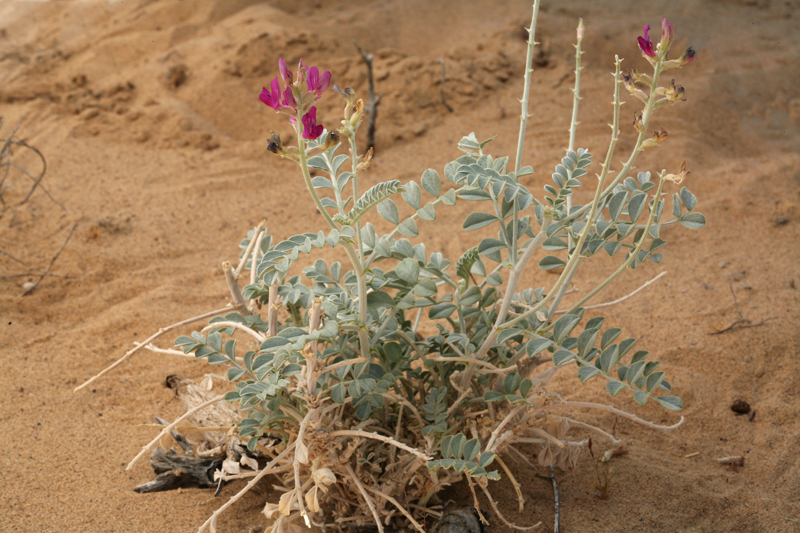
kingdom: Plantae
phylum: Tracheophyta
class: Magnoliopsida
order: Fabales
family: Fabaceae
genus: Astragalus
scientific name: Astragalus lentiginosus
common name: Freckled milkvetch
